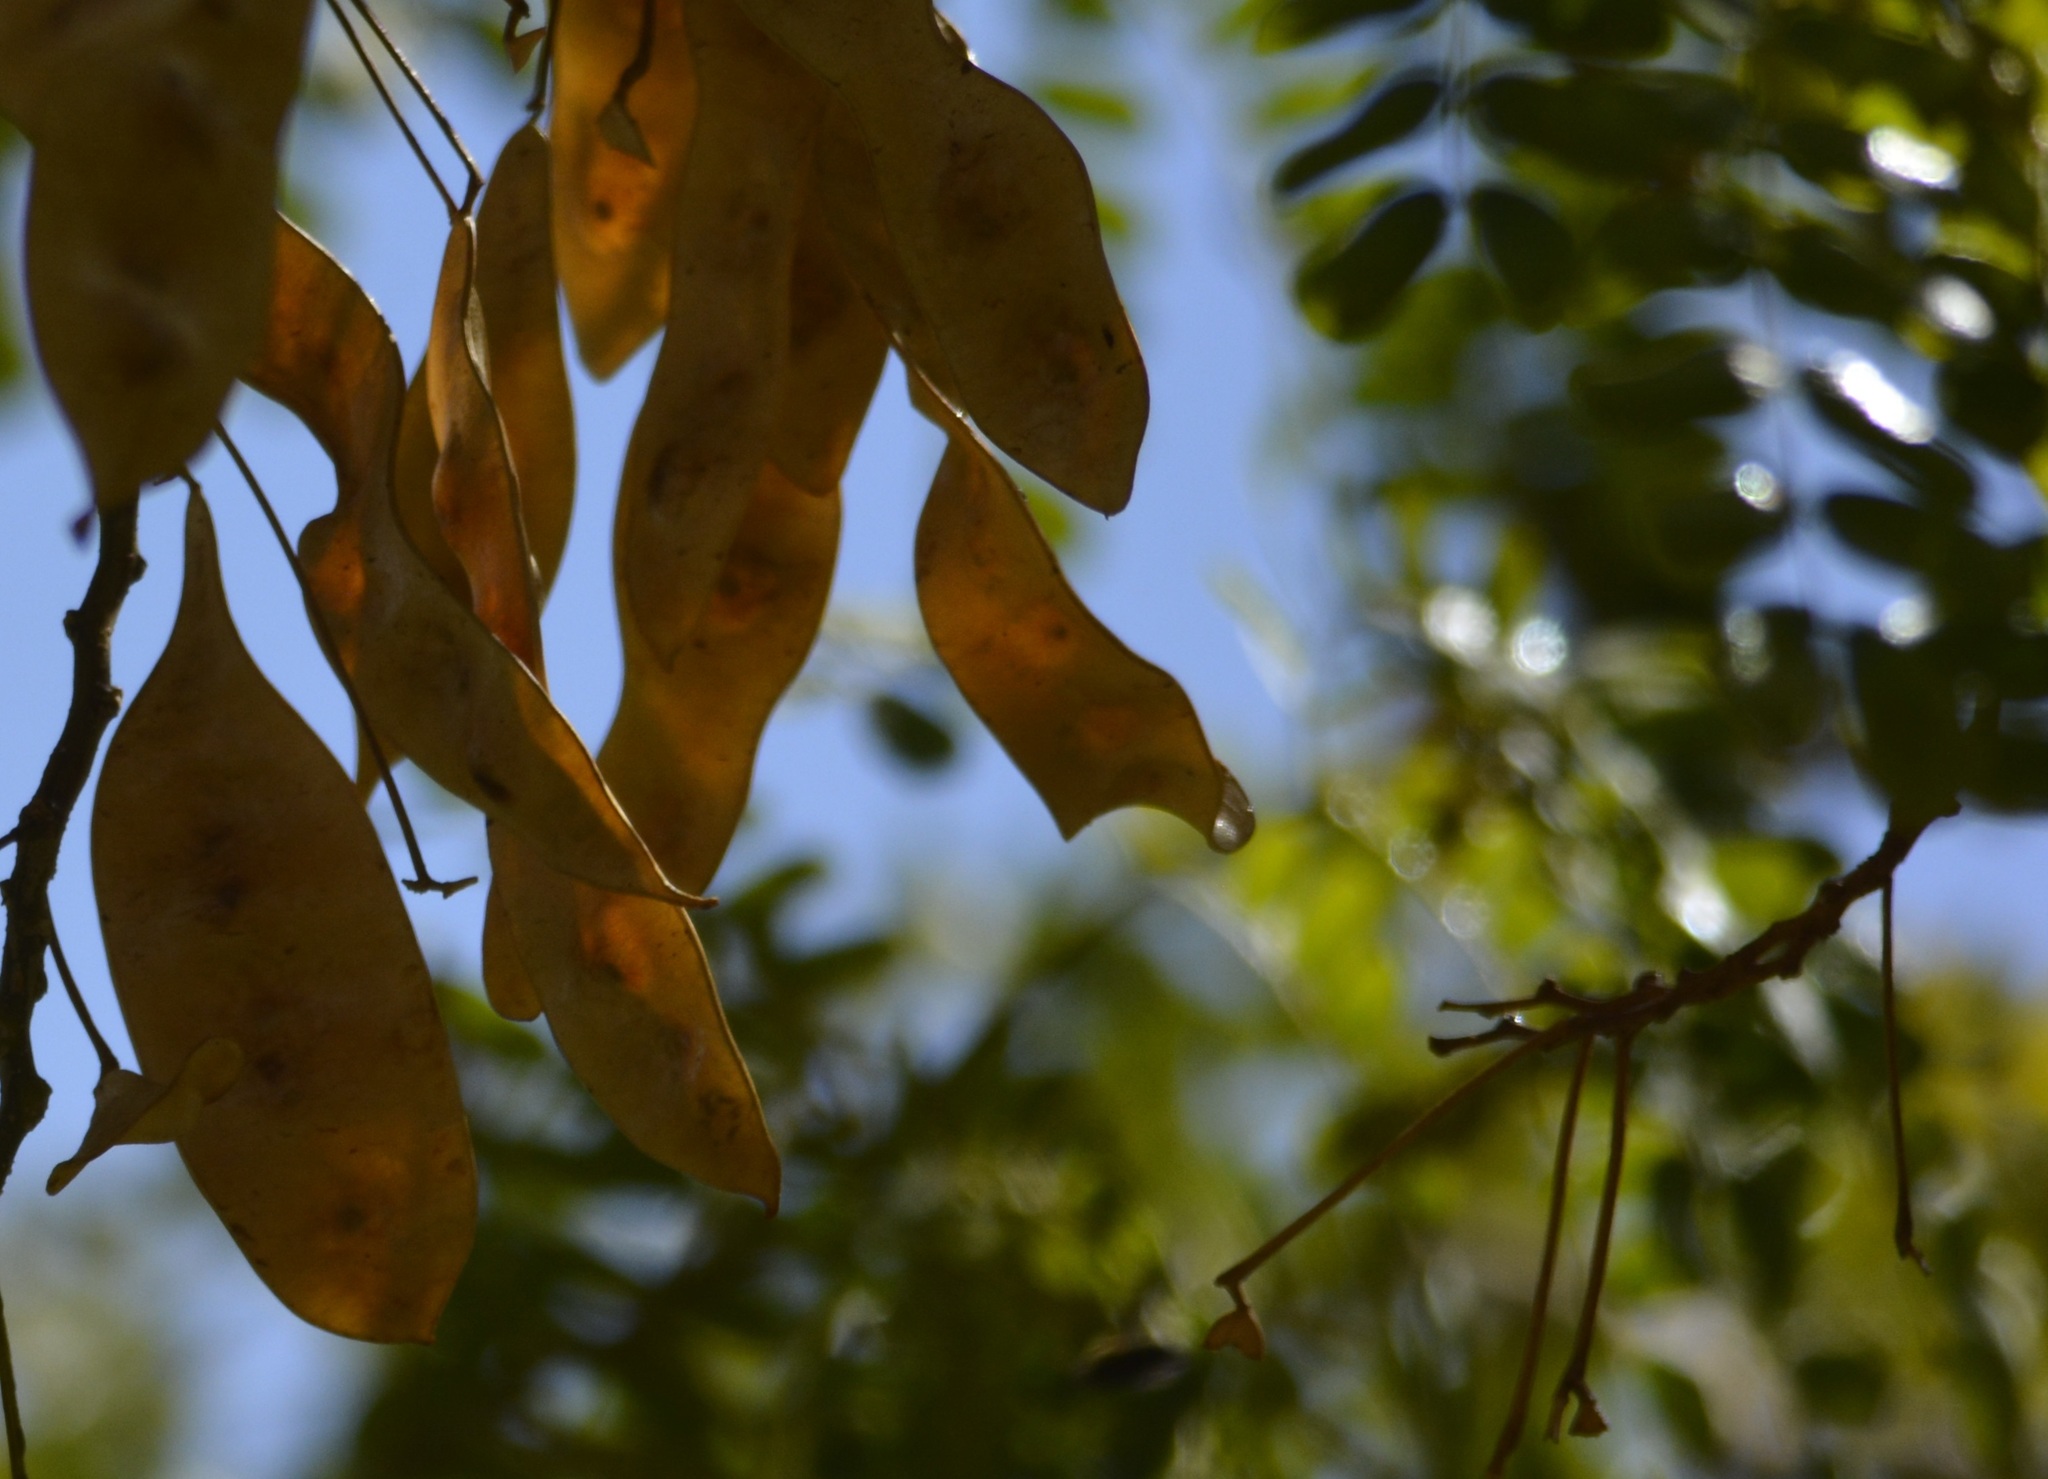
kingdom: Plantae
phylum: Tracheophyta
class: Magnoliopsida
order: Fabales
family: Fabaceae
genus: Albizia
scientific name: Albizia lebbeck
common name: Woman's tongue
